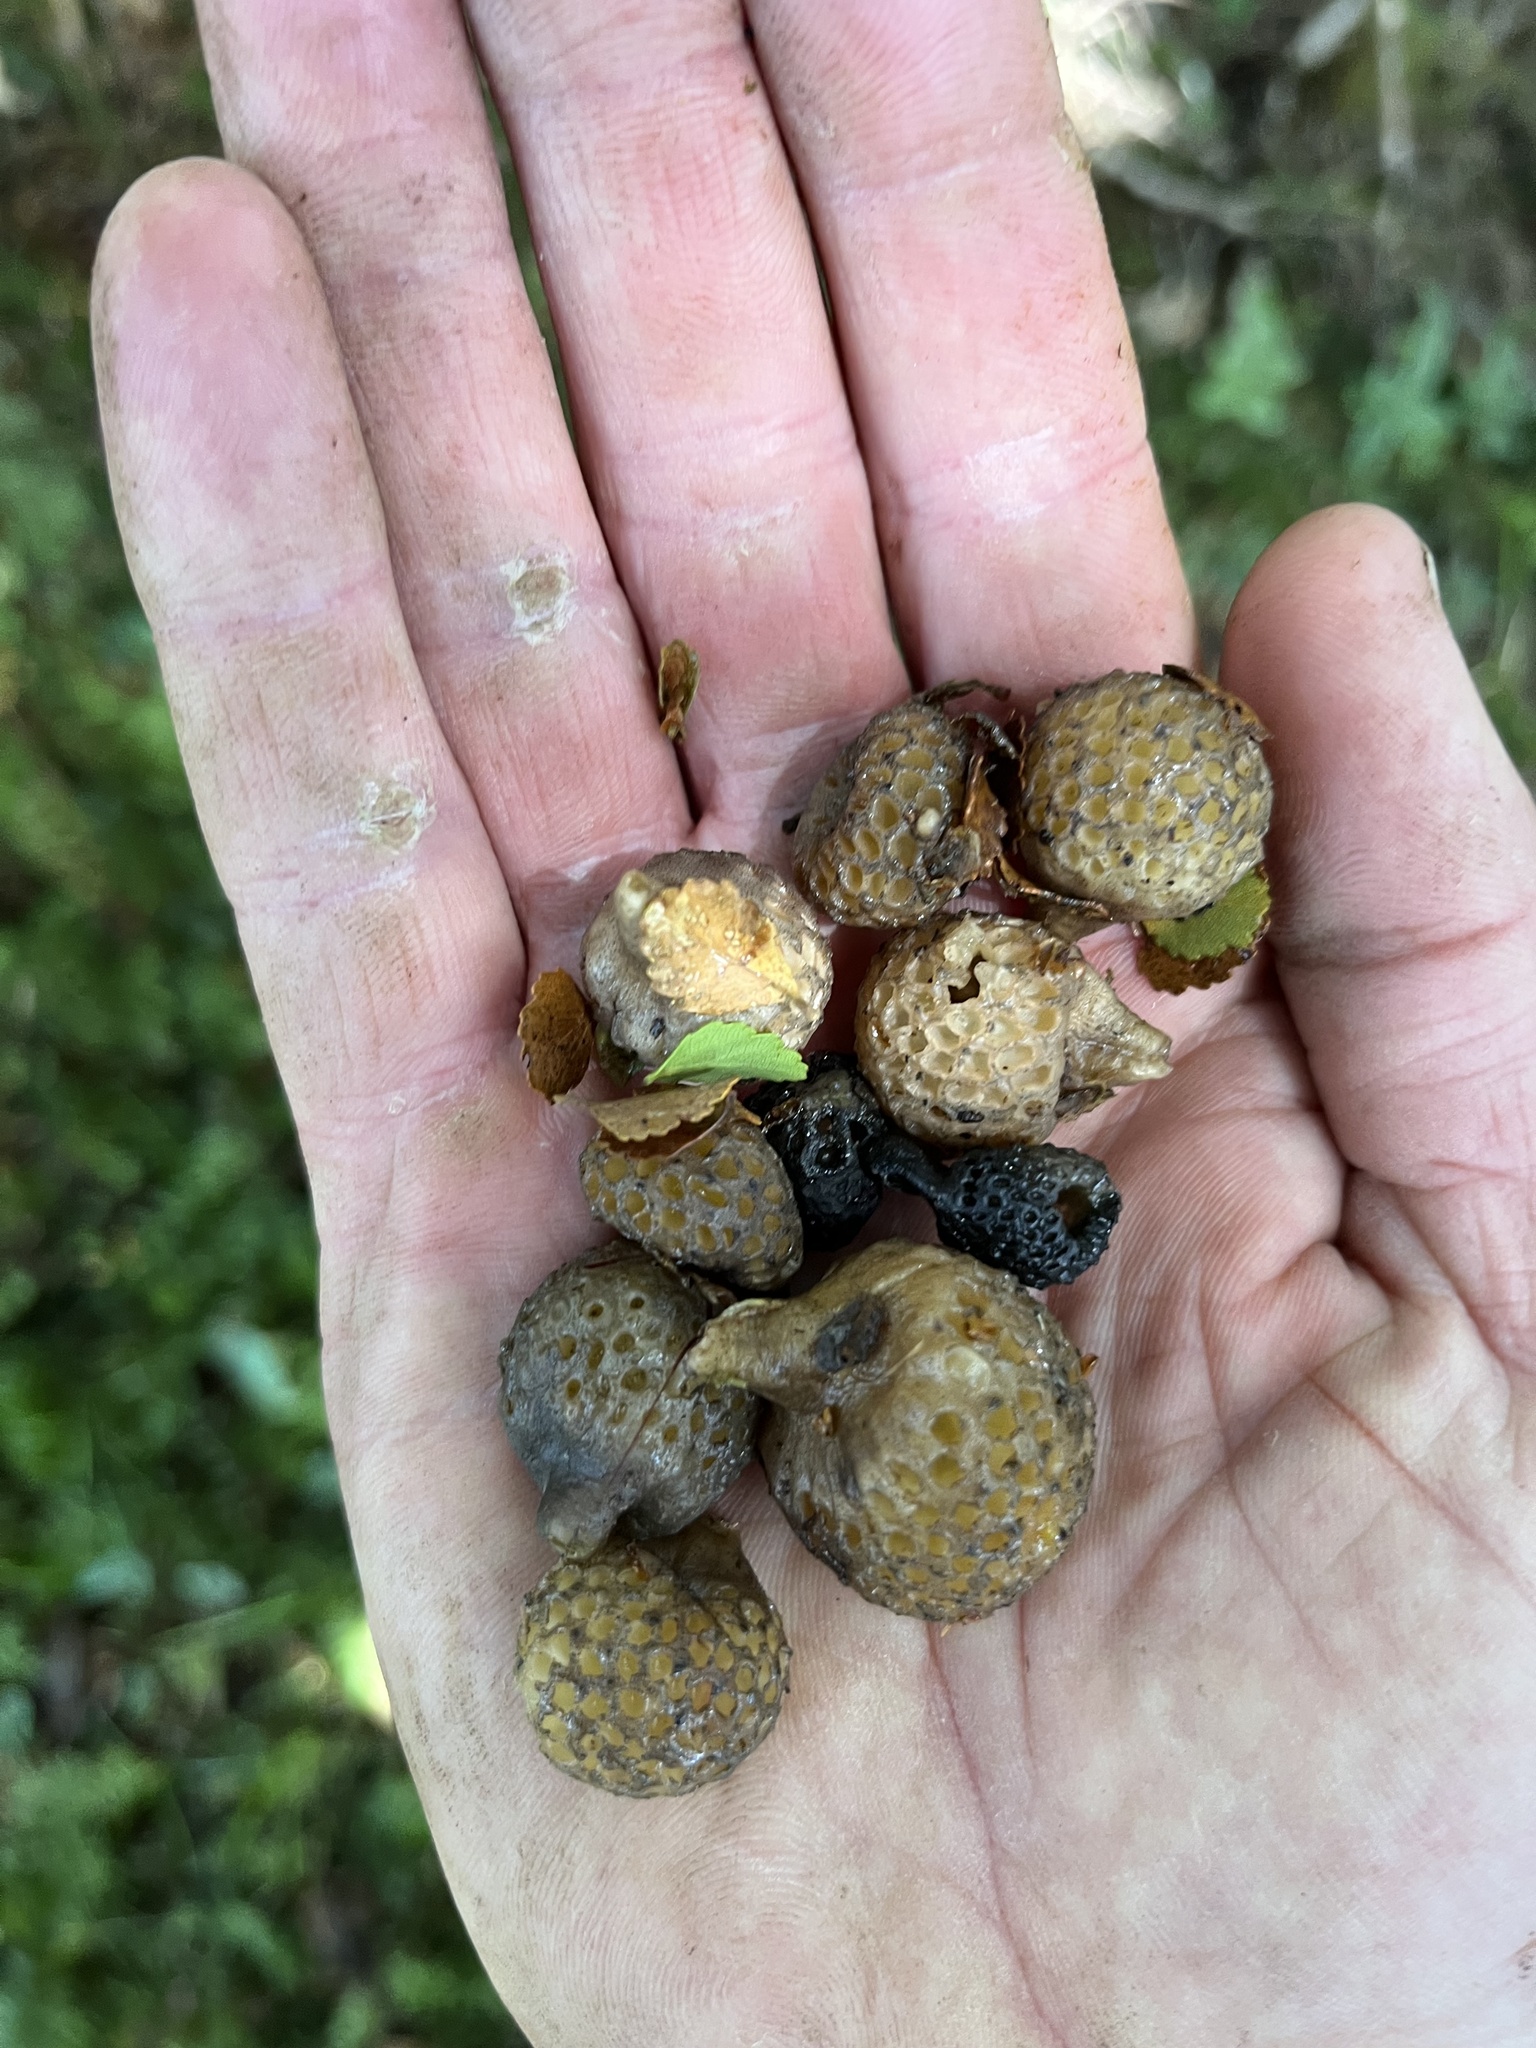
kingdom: Fungi
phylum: Ascomycota
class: Leotiomycetes
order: Cyttariales
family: Cyttariaceae
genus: Cyttaria
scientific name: Cyttaria gunnii
